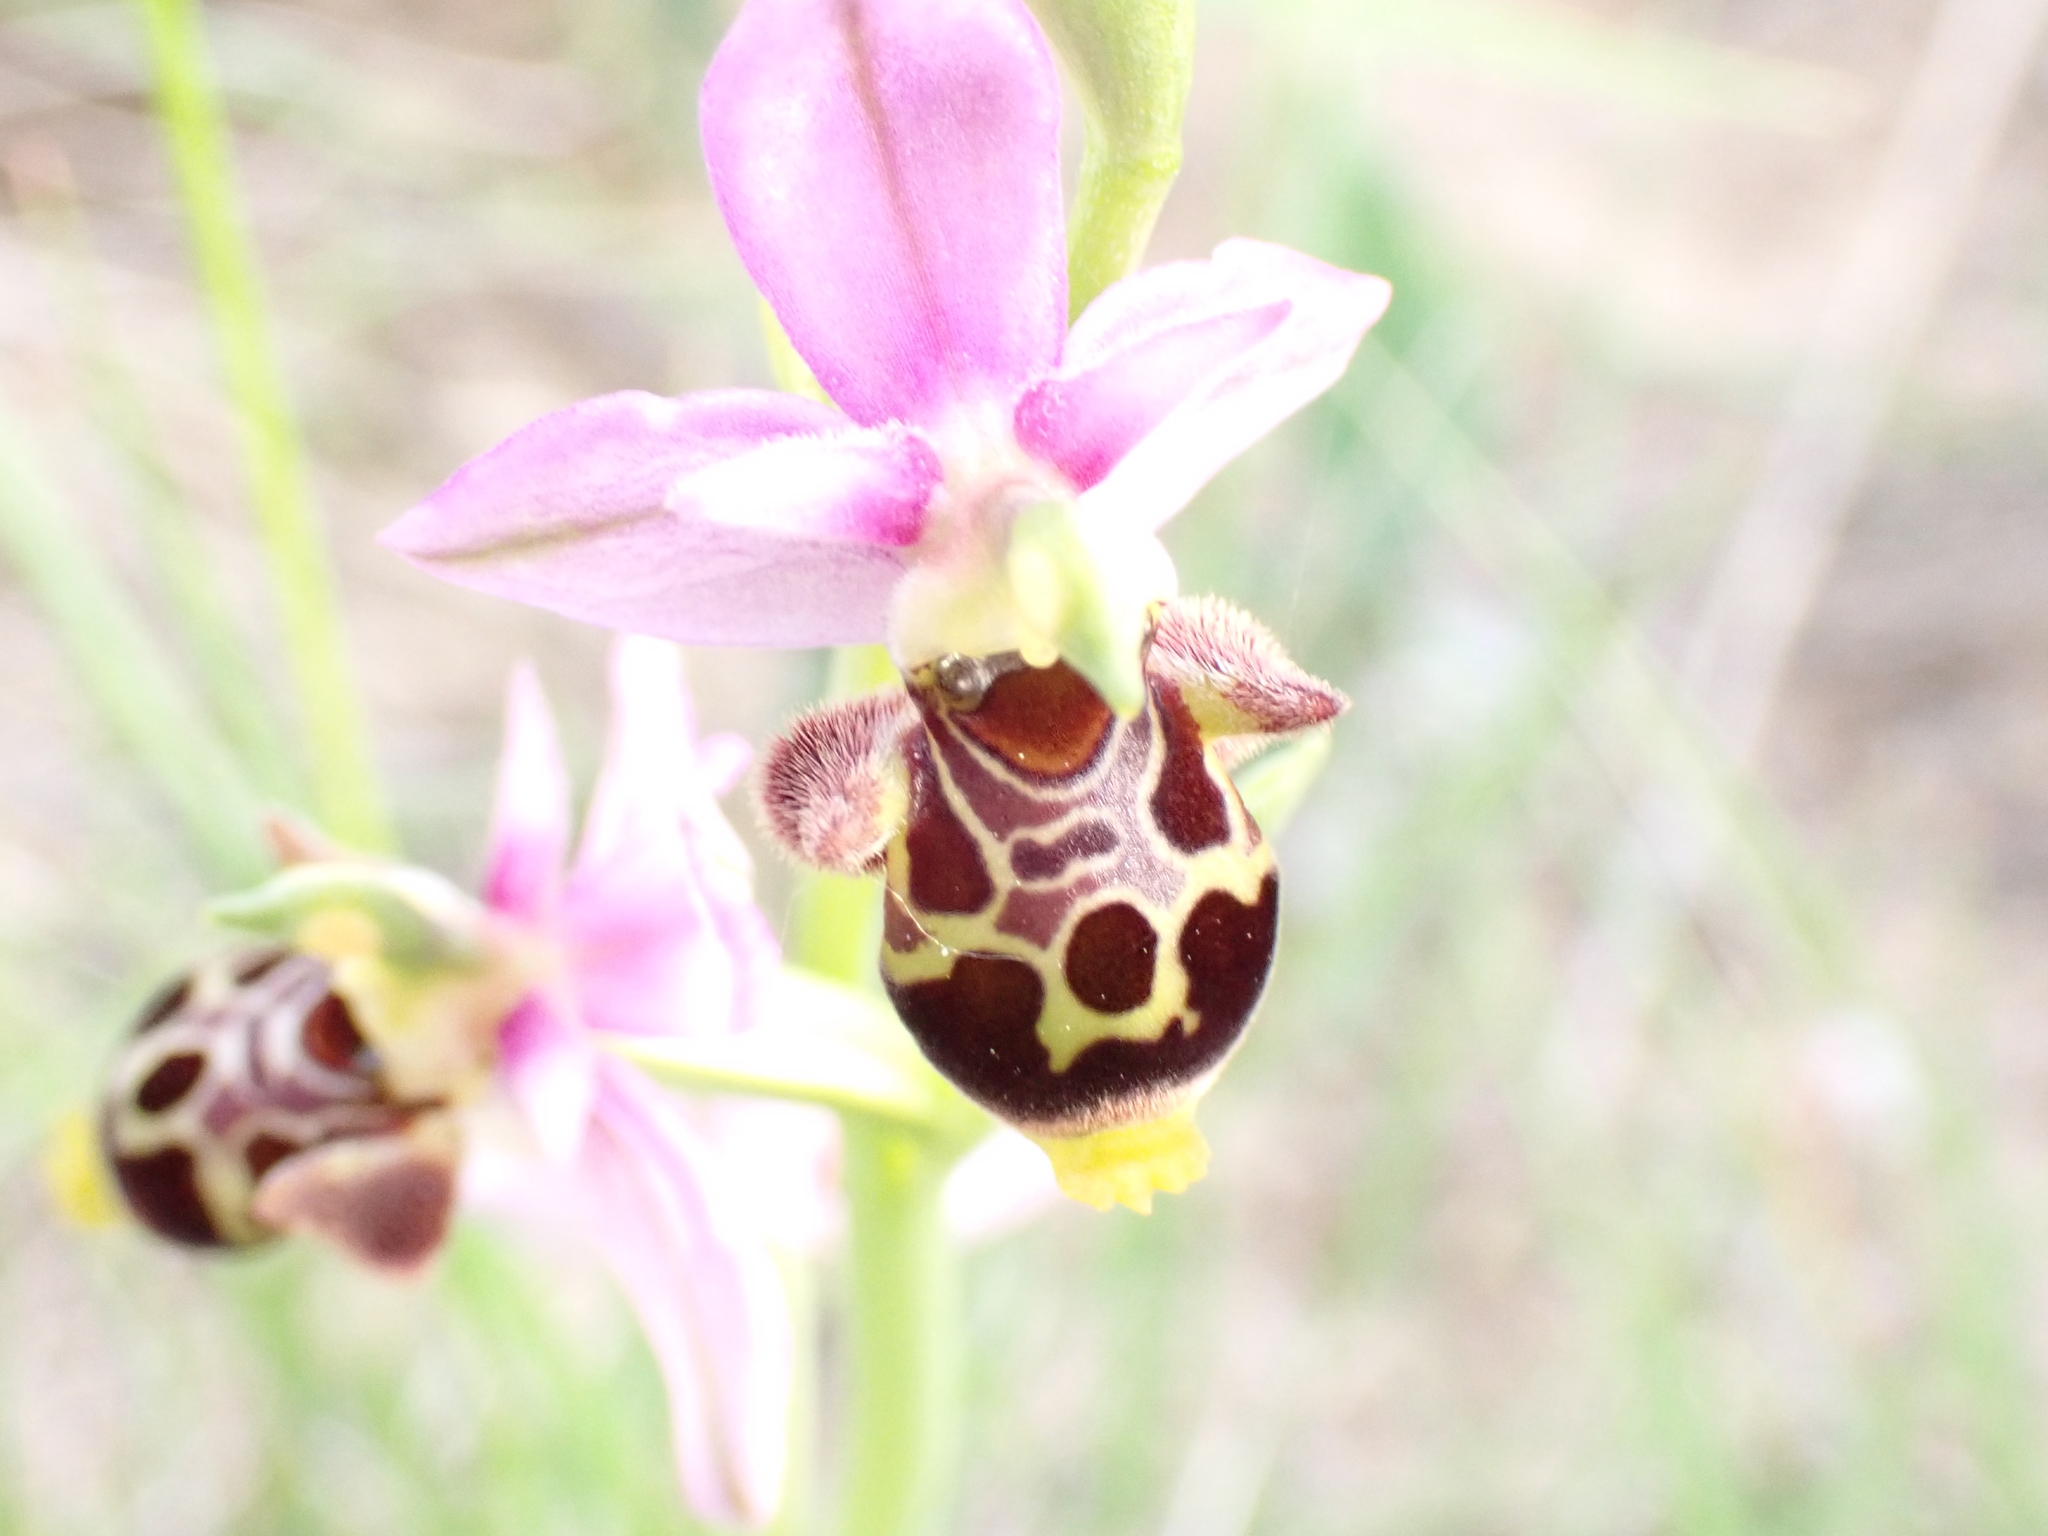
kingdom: Plantae
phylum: Tracheophyta
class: Liliopsida
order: Asparagales
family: Orchidaceae
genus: Ophrys
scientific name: Ophrys scolopax
